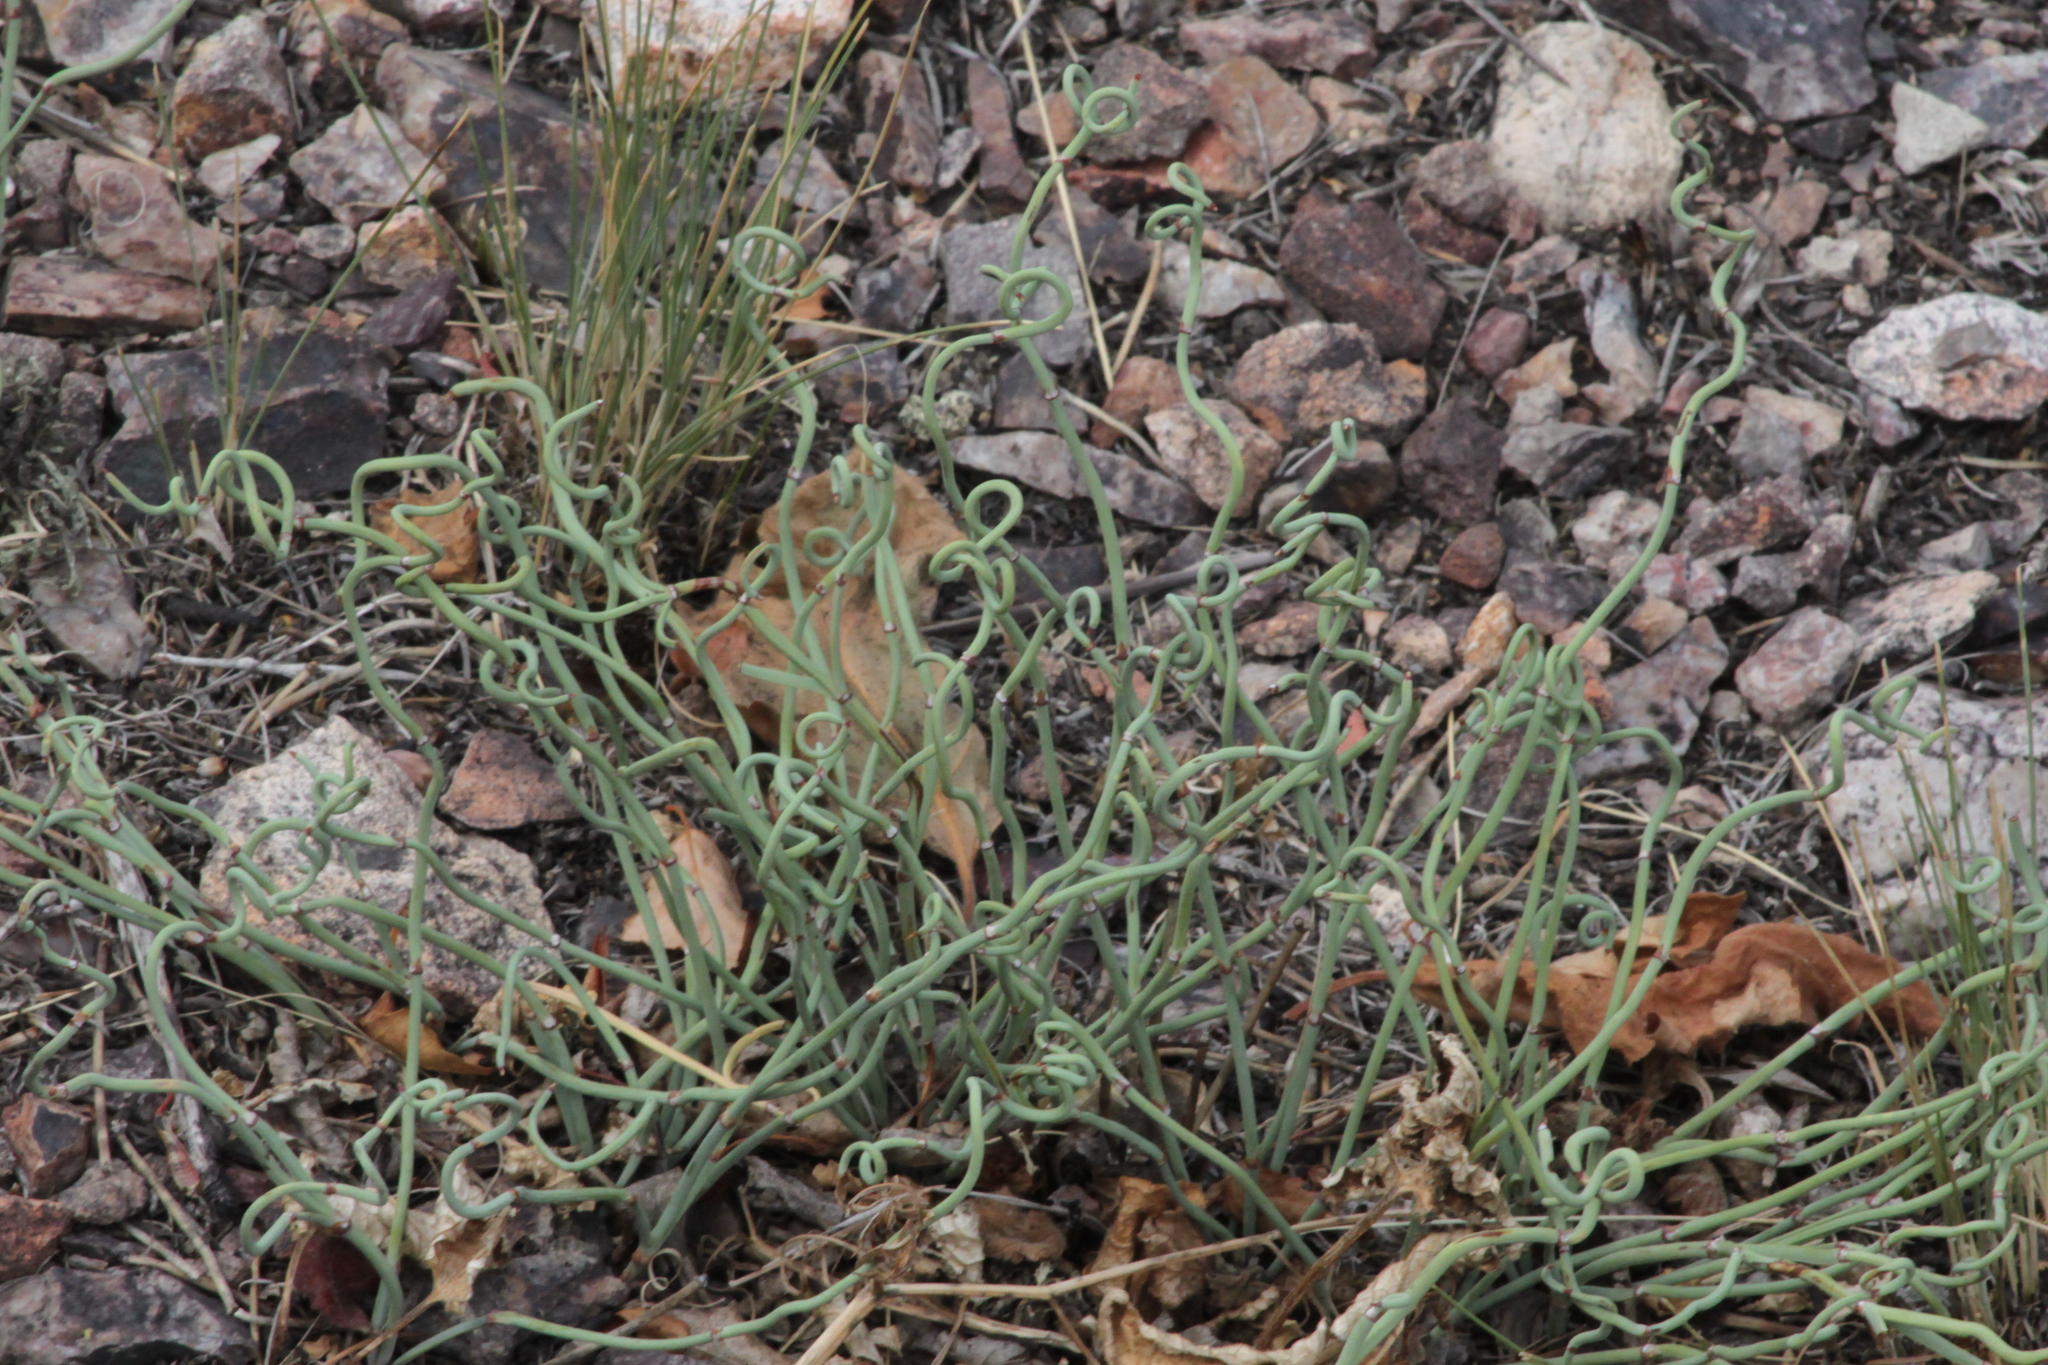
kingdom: Plantae
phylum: Tracheophyta
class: Gnetopsida
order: Ephedrales
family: Ephedraceae
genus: Ephedra
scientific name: Ephedra distachya
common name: Sea grape
